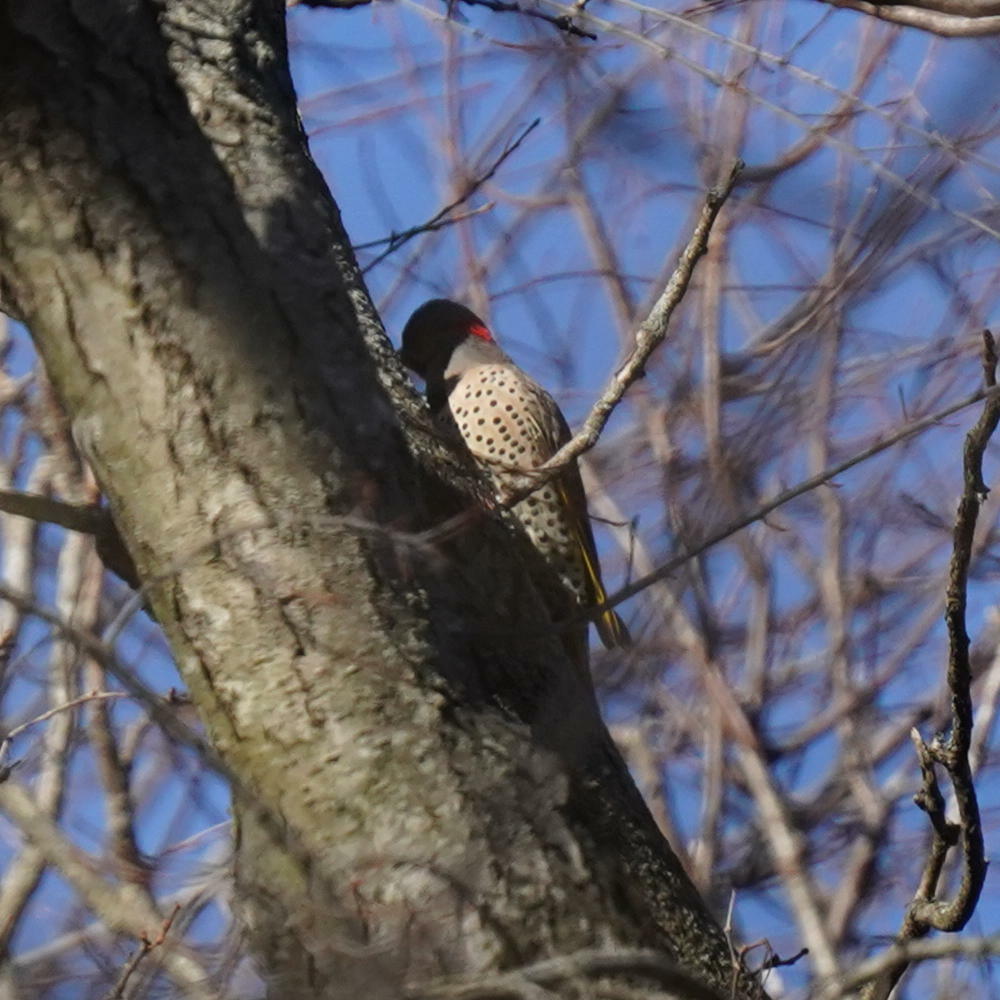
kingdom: Animalia
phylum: Chordata
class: Aves
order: Piciformes
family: Picidae
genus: Colaptes
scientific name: Colaptes auratus
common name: Northern flicker
